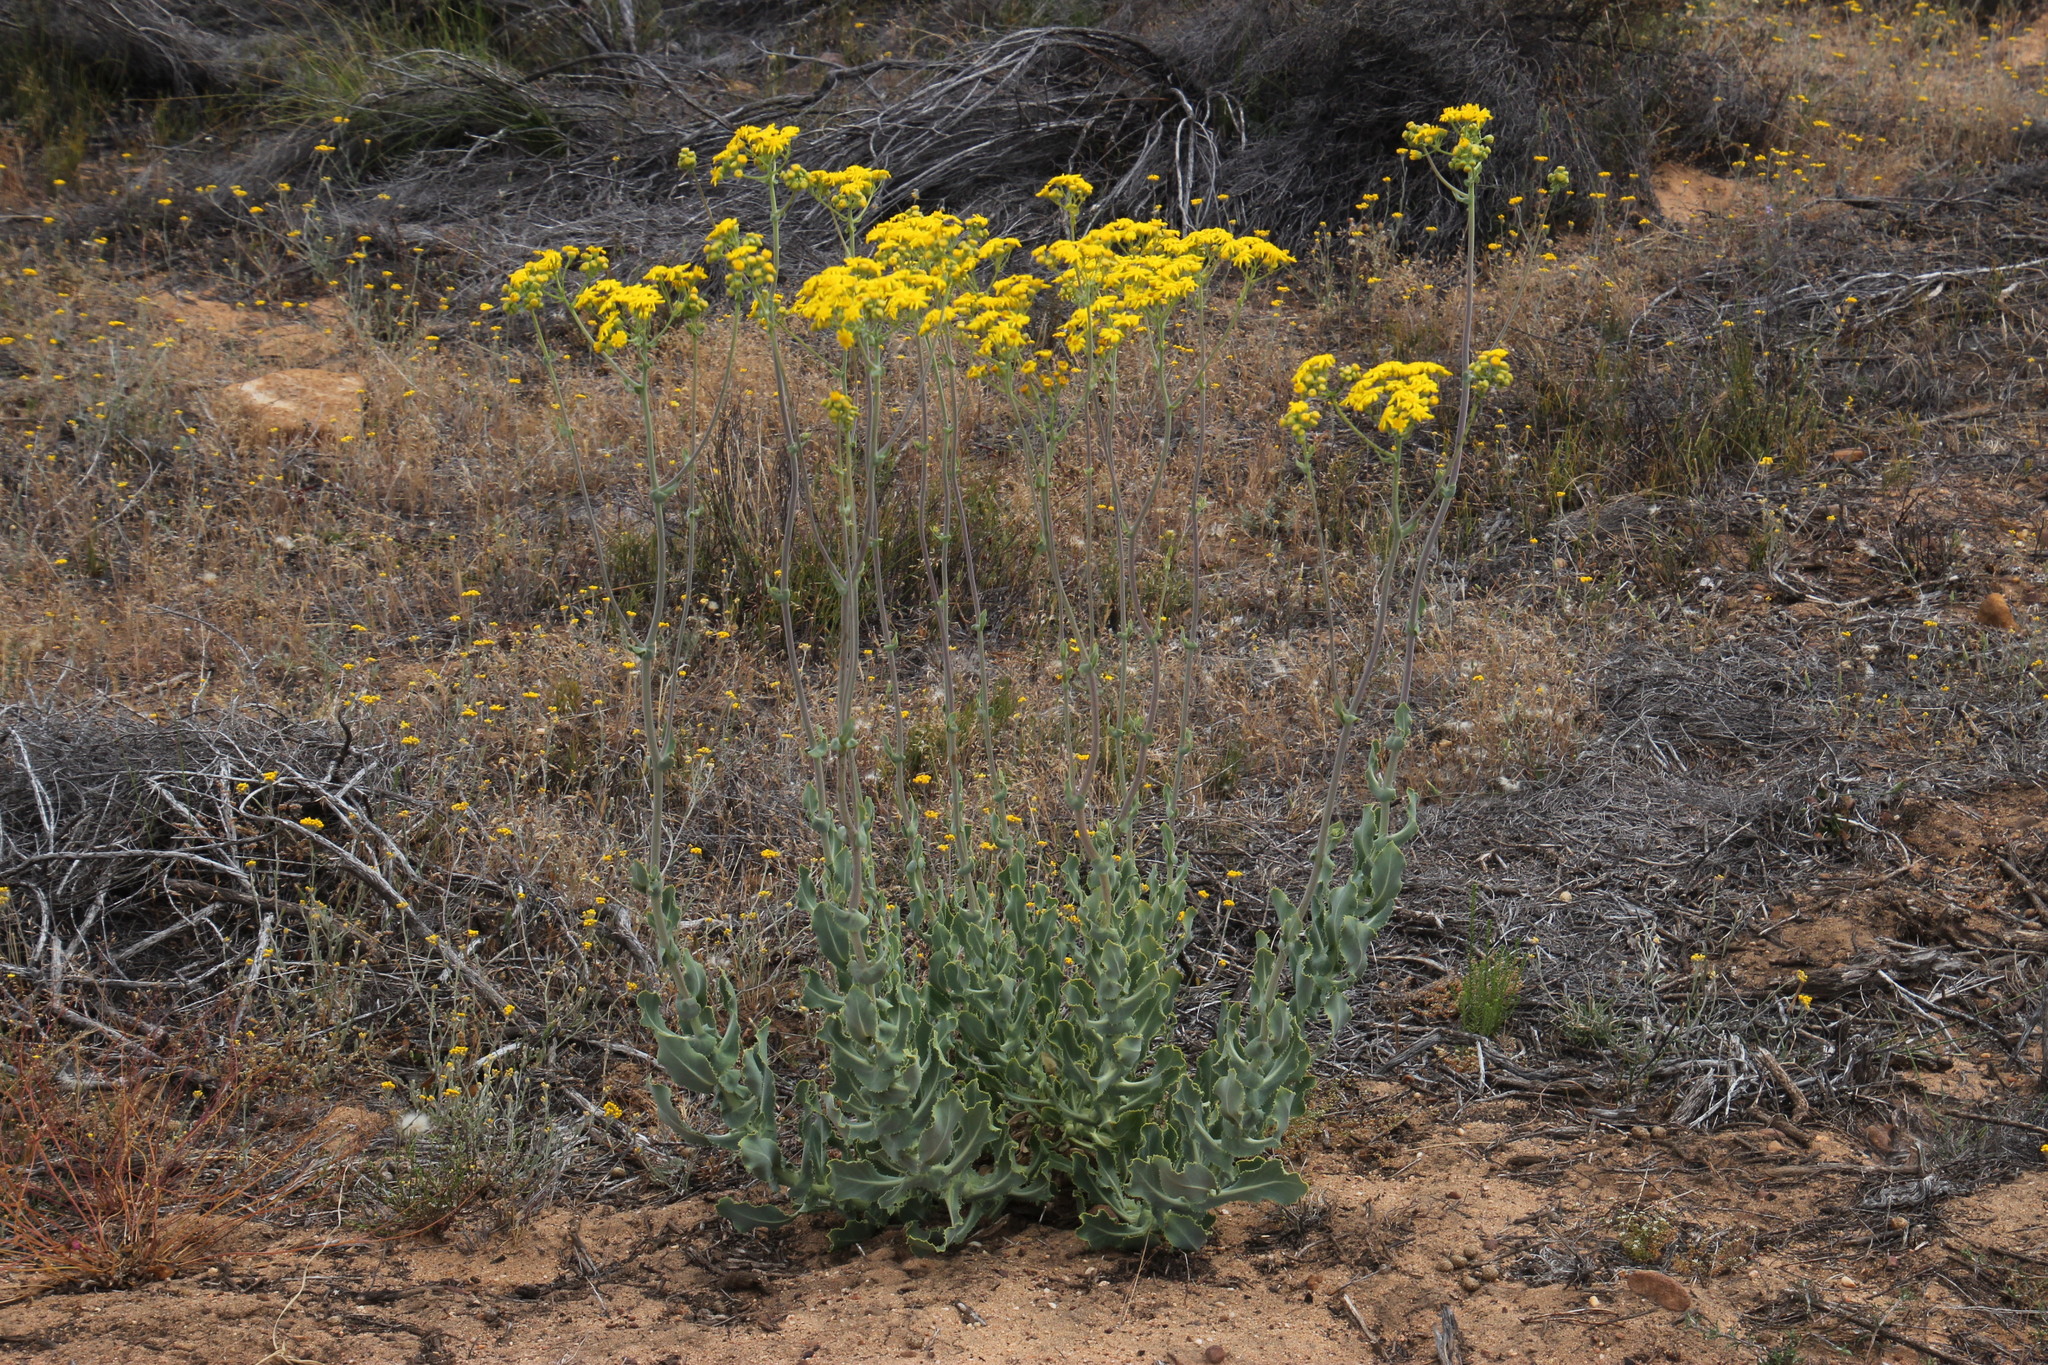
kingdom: Plantae
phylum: Tracheophyta
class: Magnoliopsida
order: Asterales
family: Asteraceae
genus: Othonna
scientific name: Othonna parviflora
